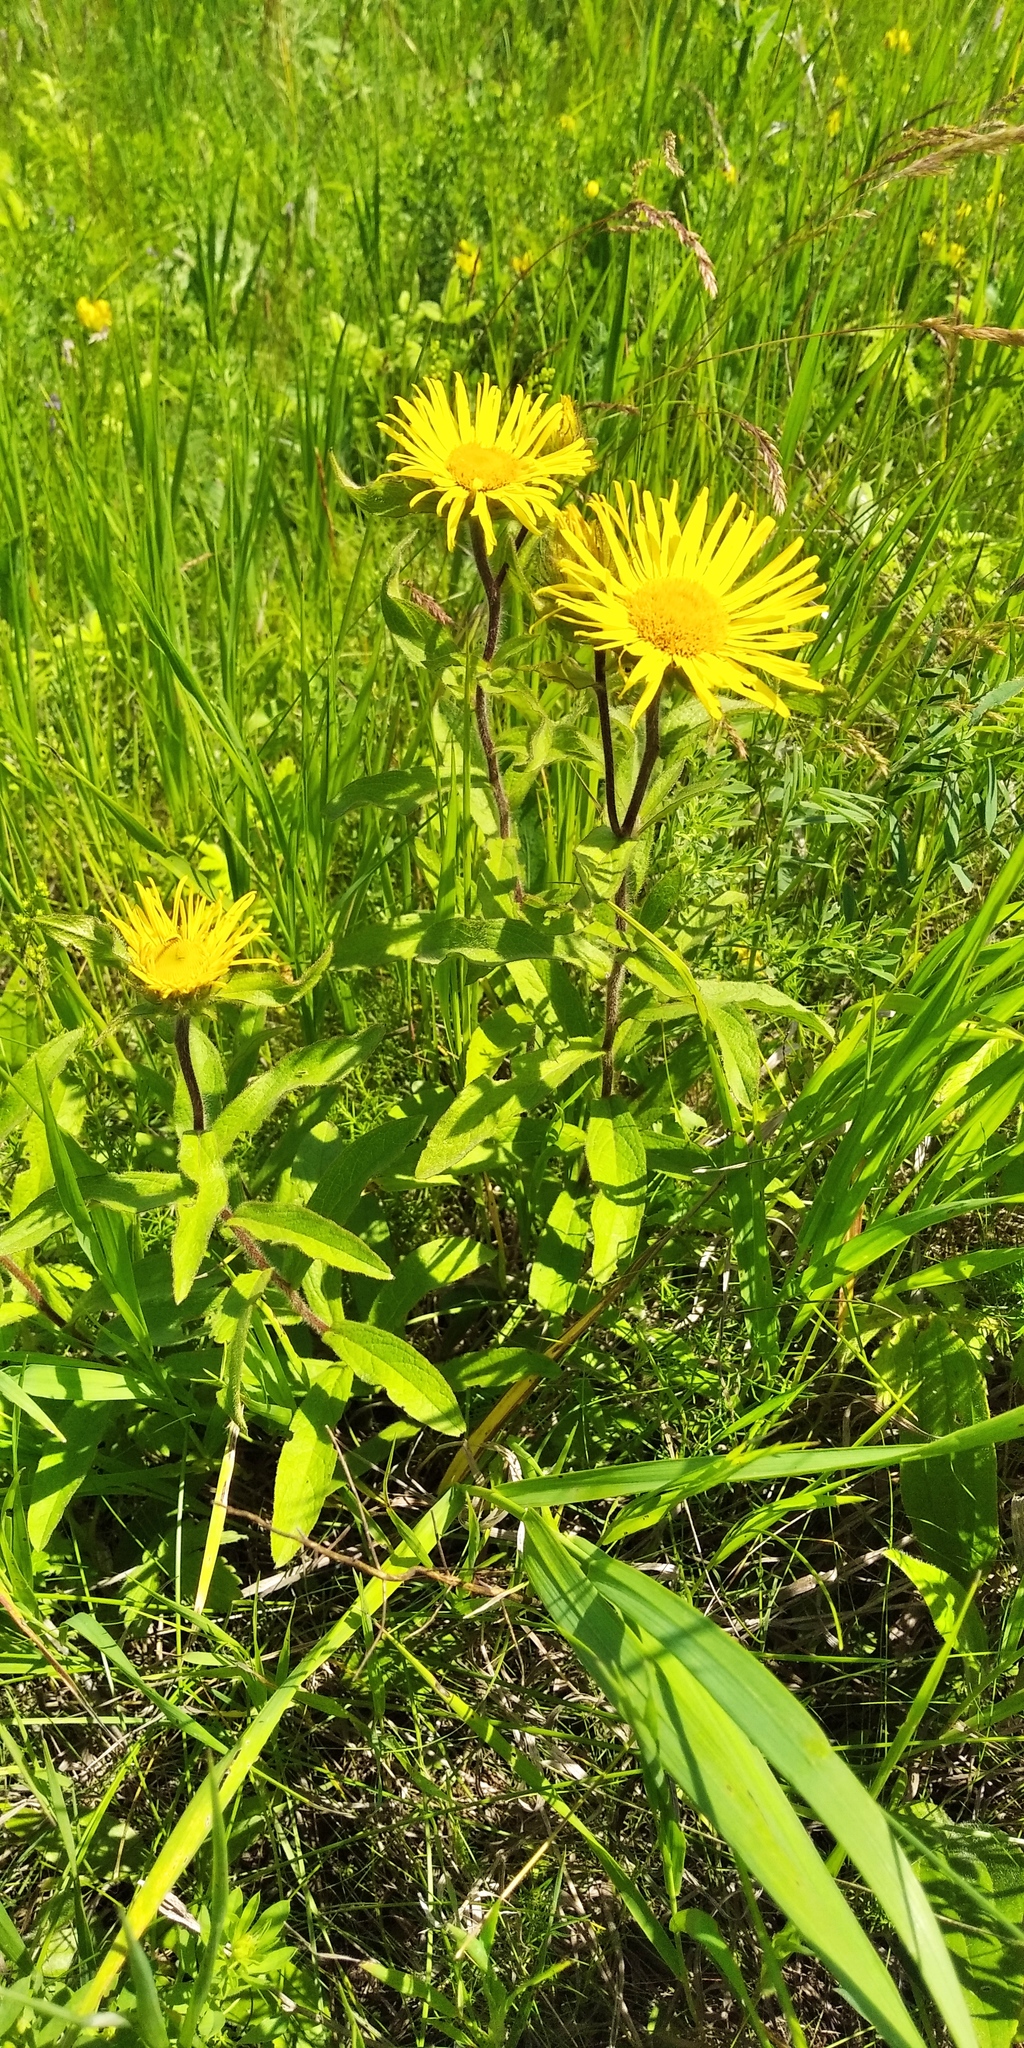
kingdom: Plantae
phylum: Tracheophyta
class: Magnoliopsida
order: Asterales
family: Asteraceae
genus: Pentanema
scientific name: Pentanema hirtum
